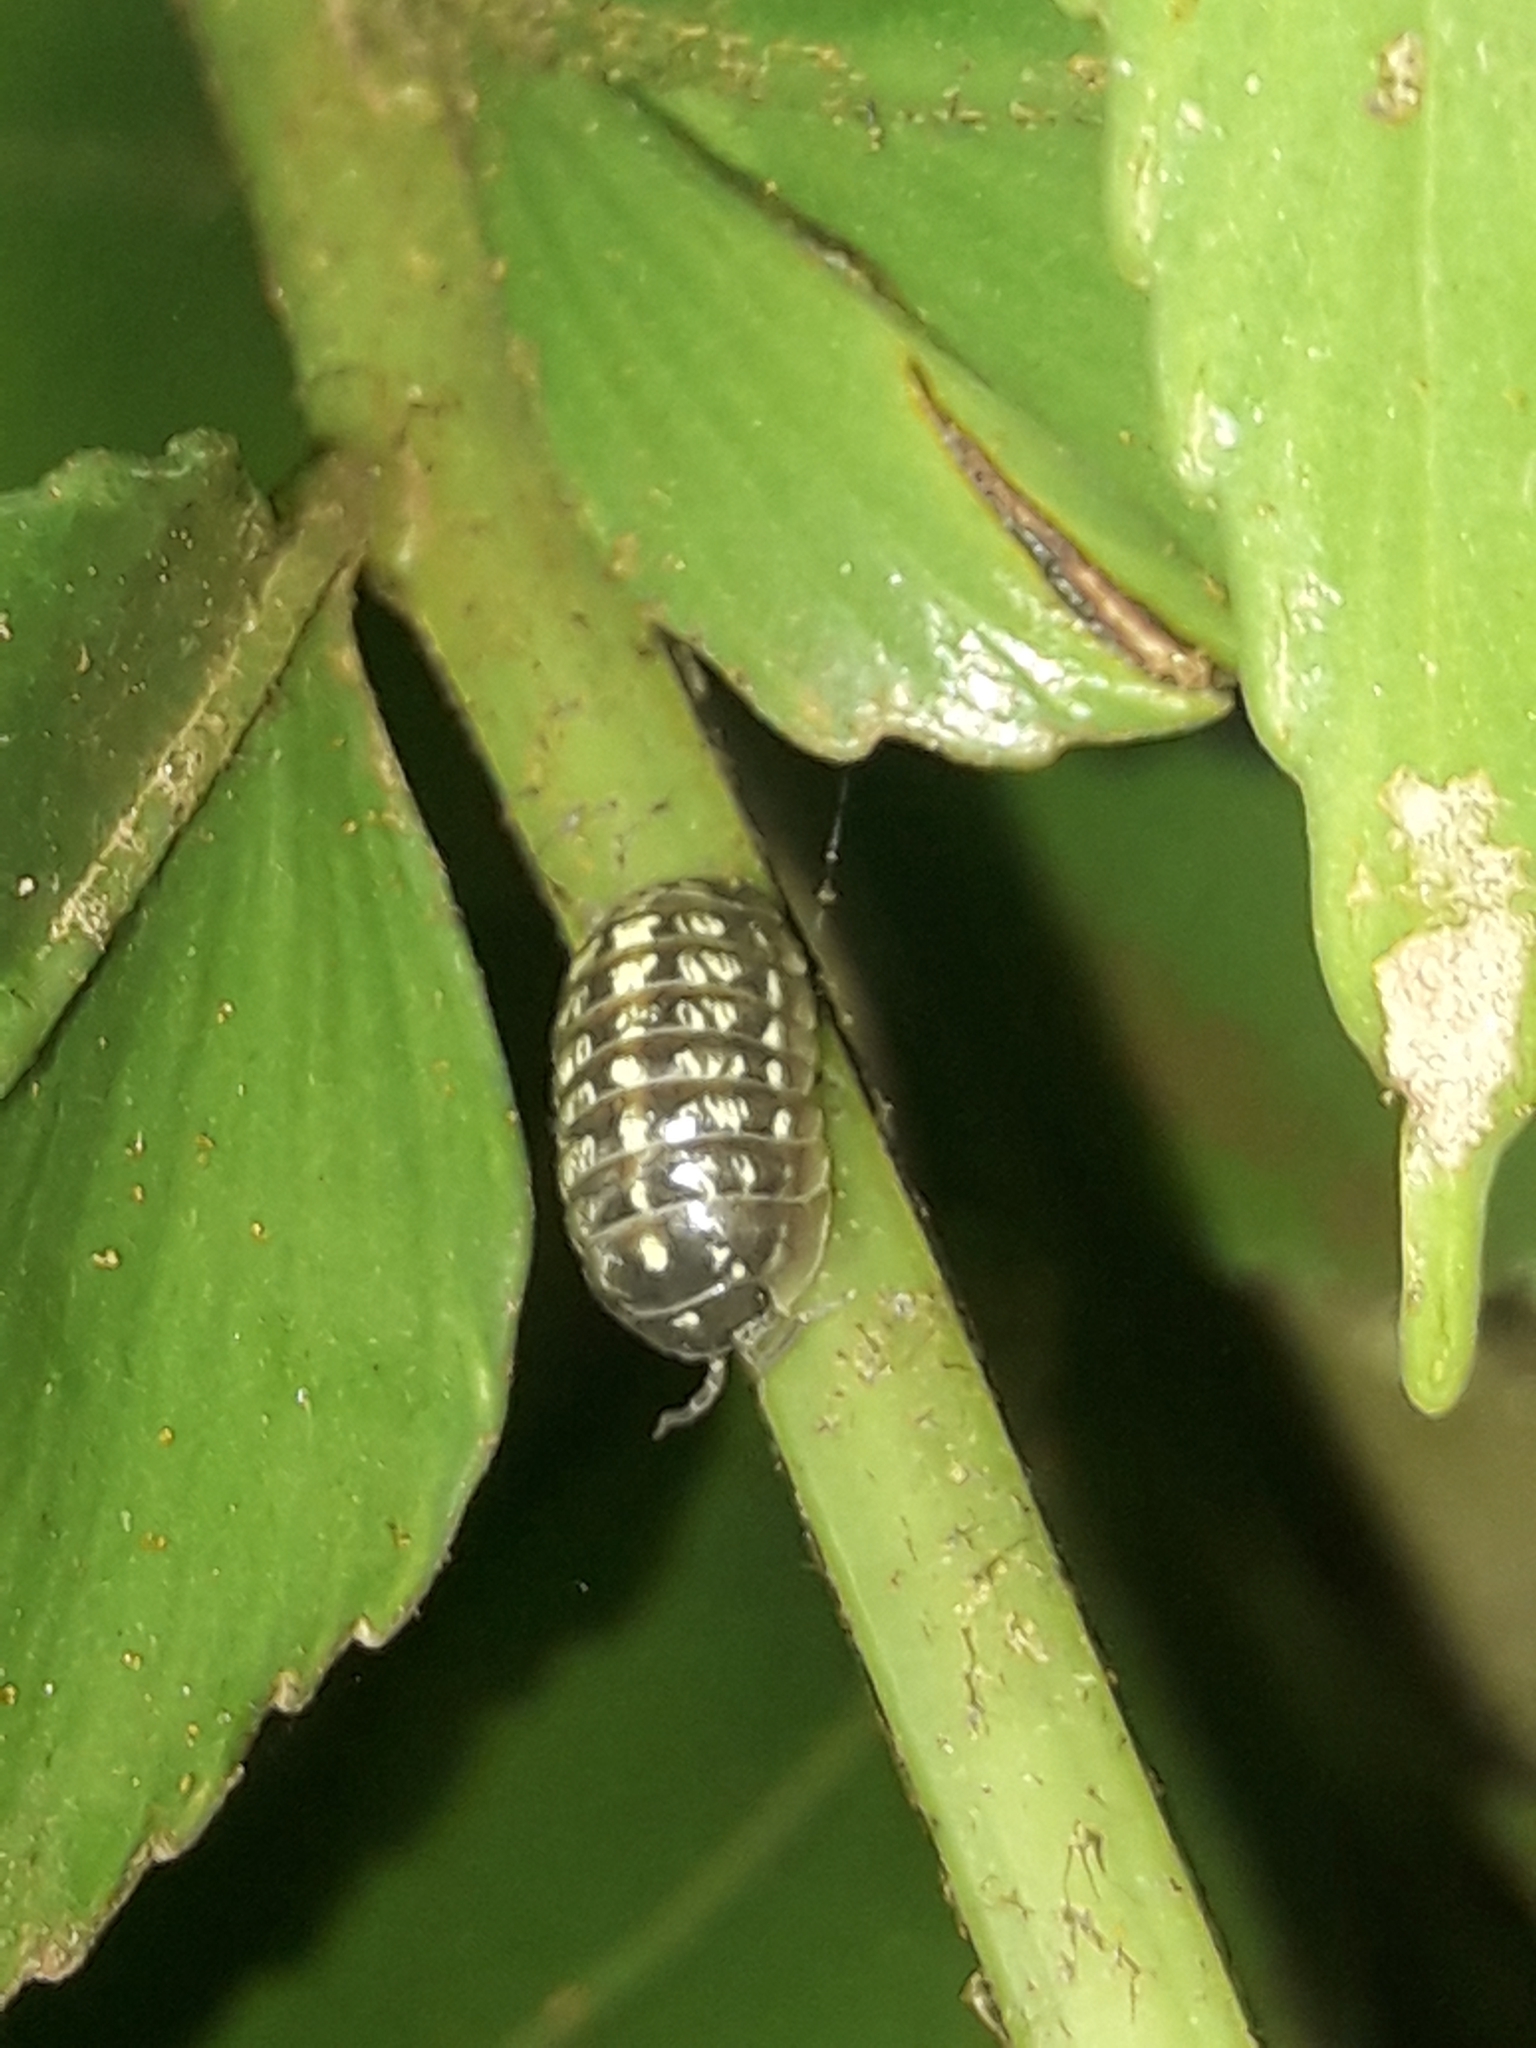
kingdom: Animalia
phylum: Arthropoda
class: Malacostraca
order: Isopoda
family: Armadillidiidae
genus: Armadillidium
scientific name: Armadillidium vulgare
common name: Common pill woodlouse
